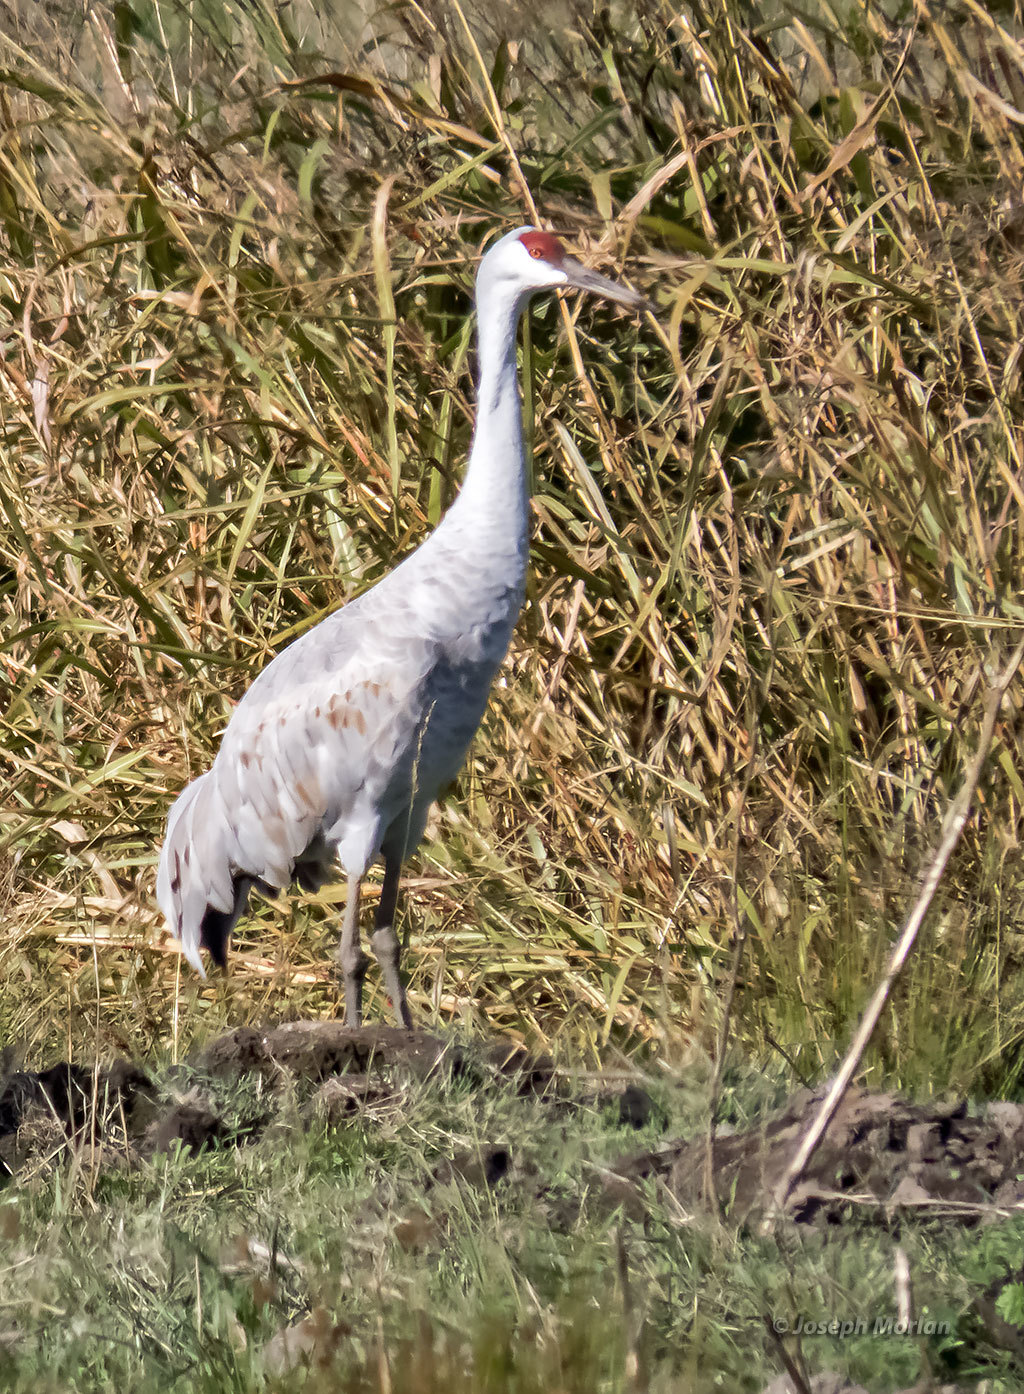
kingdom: Animalia
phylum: Chordata
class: Aves
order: Gruiformes
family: Gruidae
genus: Grus
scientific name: Grus canadensis
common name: Sandhill crane
